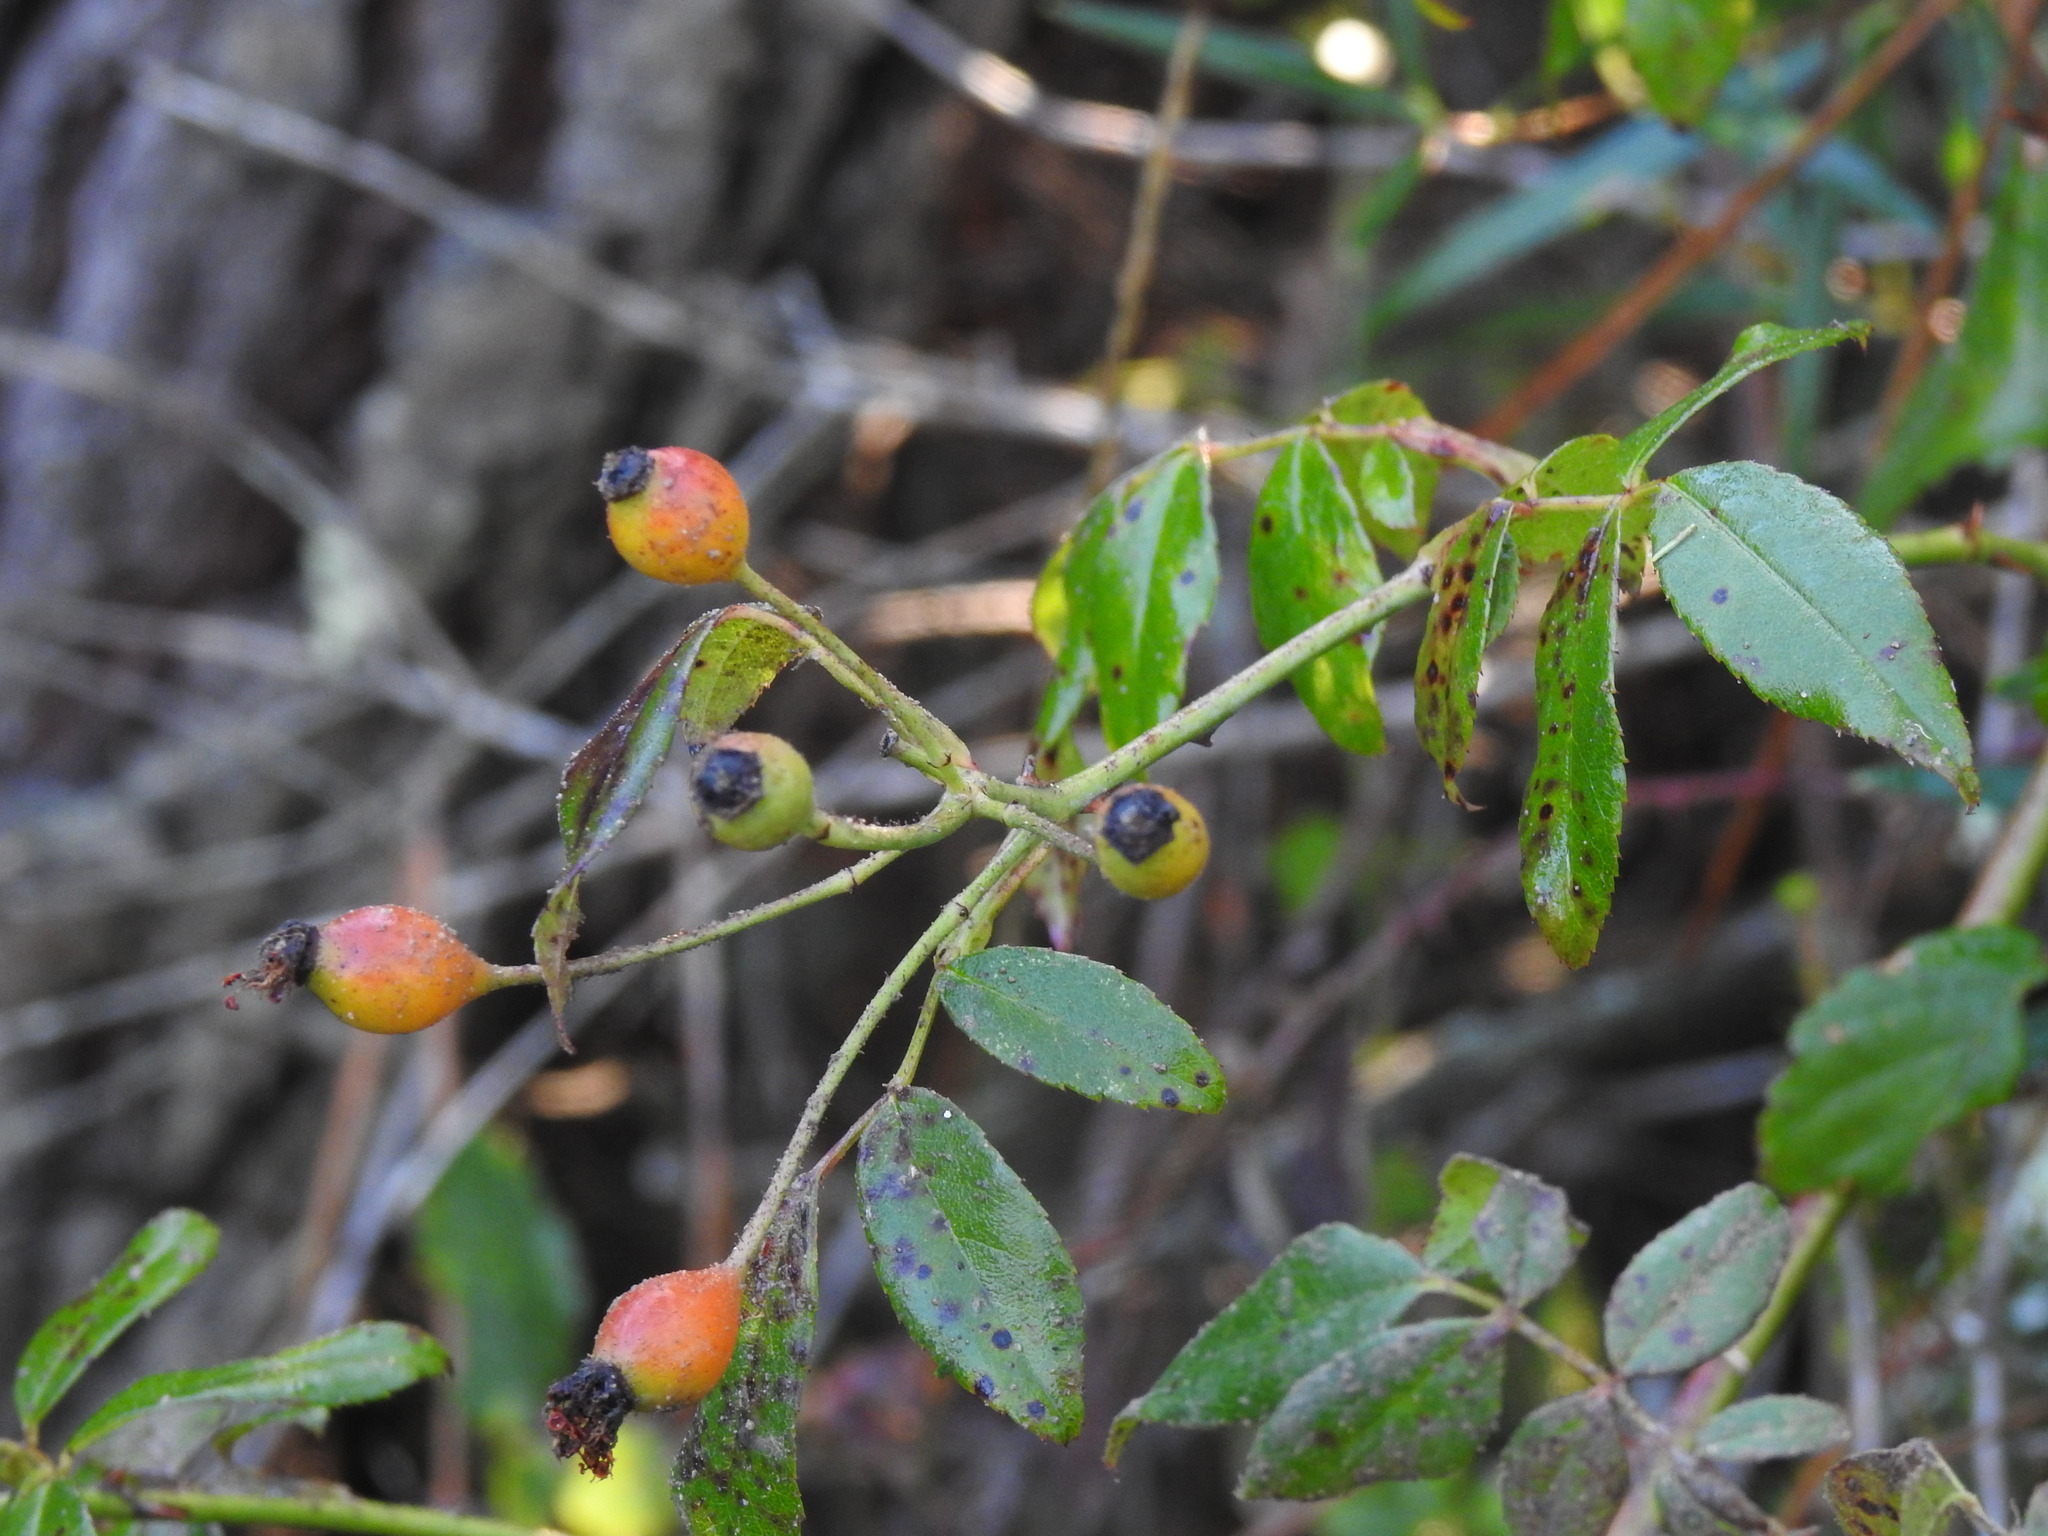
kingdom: Plantae
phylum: Tracheophyta
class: Magnoliopsida
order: Rosales
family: Rosaceae
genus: Rosa
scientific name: Rosa sempervirens
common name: Evergreen rose
